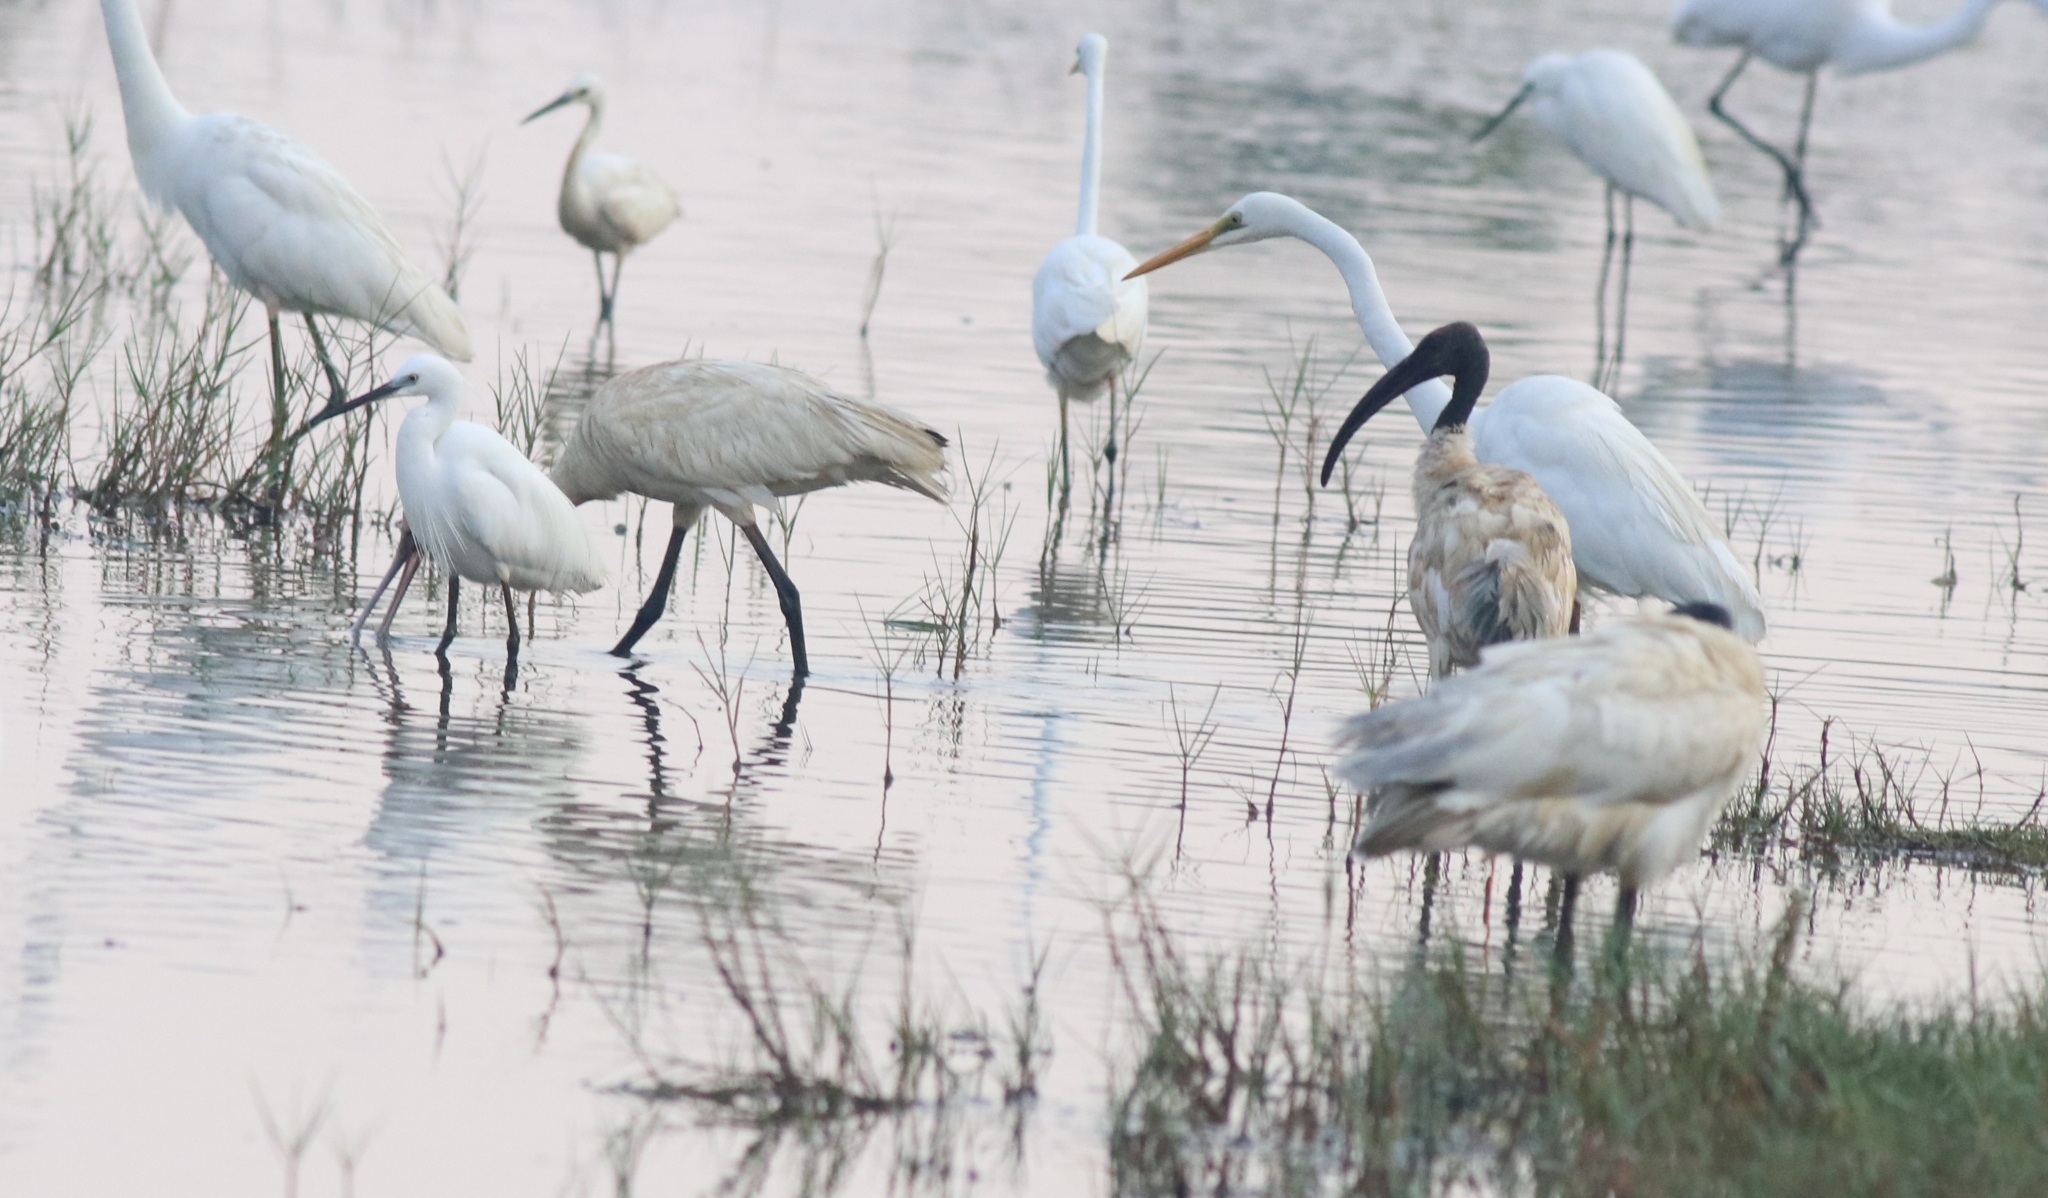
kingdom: Animalia
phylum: Chordata
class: Aves
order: Pelecaniformes
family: Threskiornithidae
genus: Threskiornis
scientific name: Threskiornis melanocephalus
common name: Black-headed ibis
